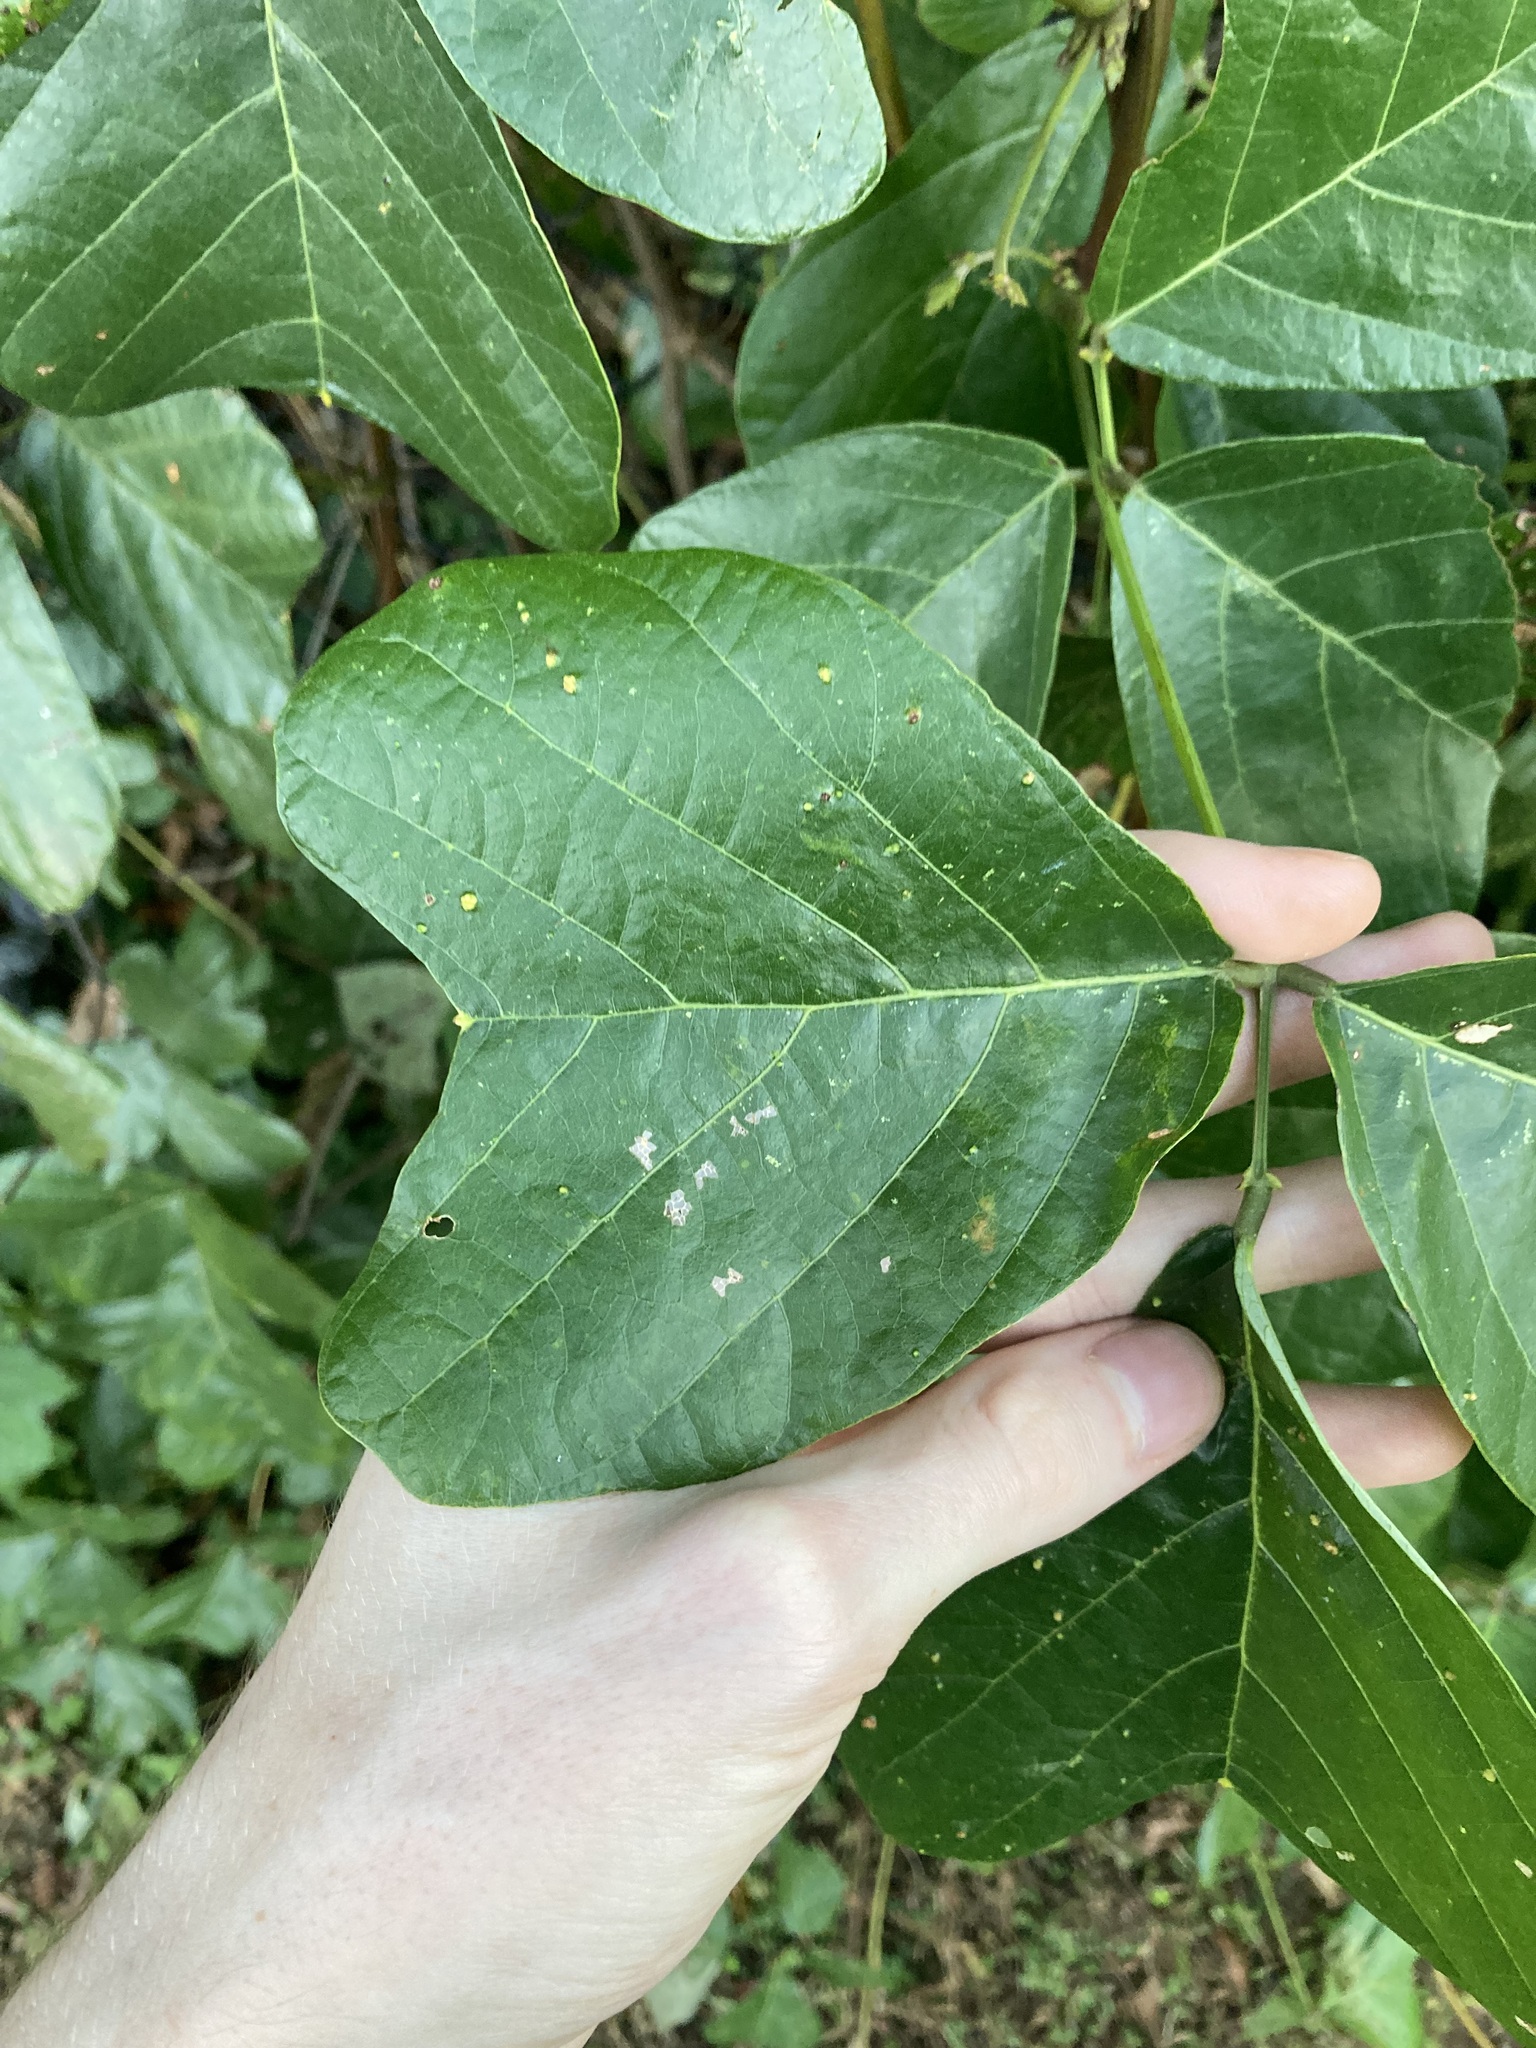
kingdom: Plantae
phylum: Tracheophyta
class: Magnoliopsida
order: Fabales
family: Fabaceae
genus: Vandasina
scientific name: Vandasina retusa
